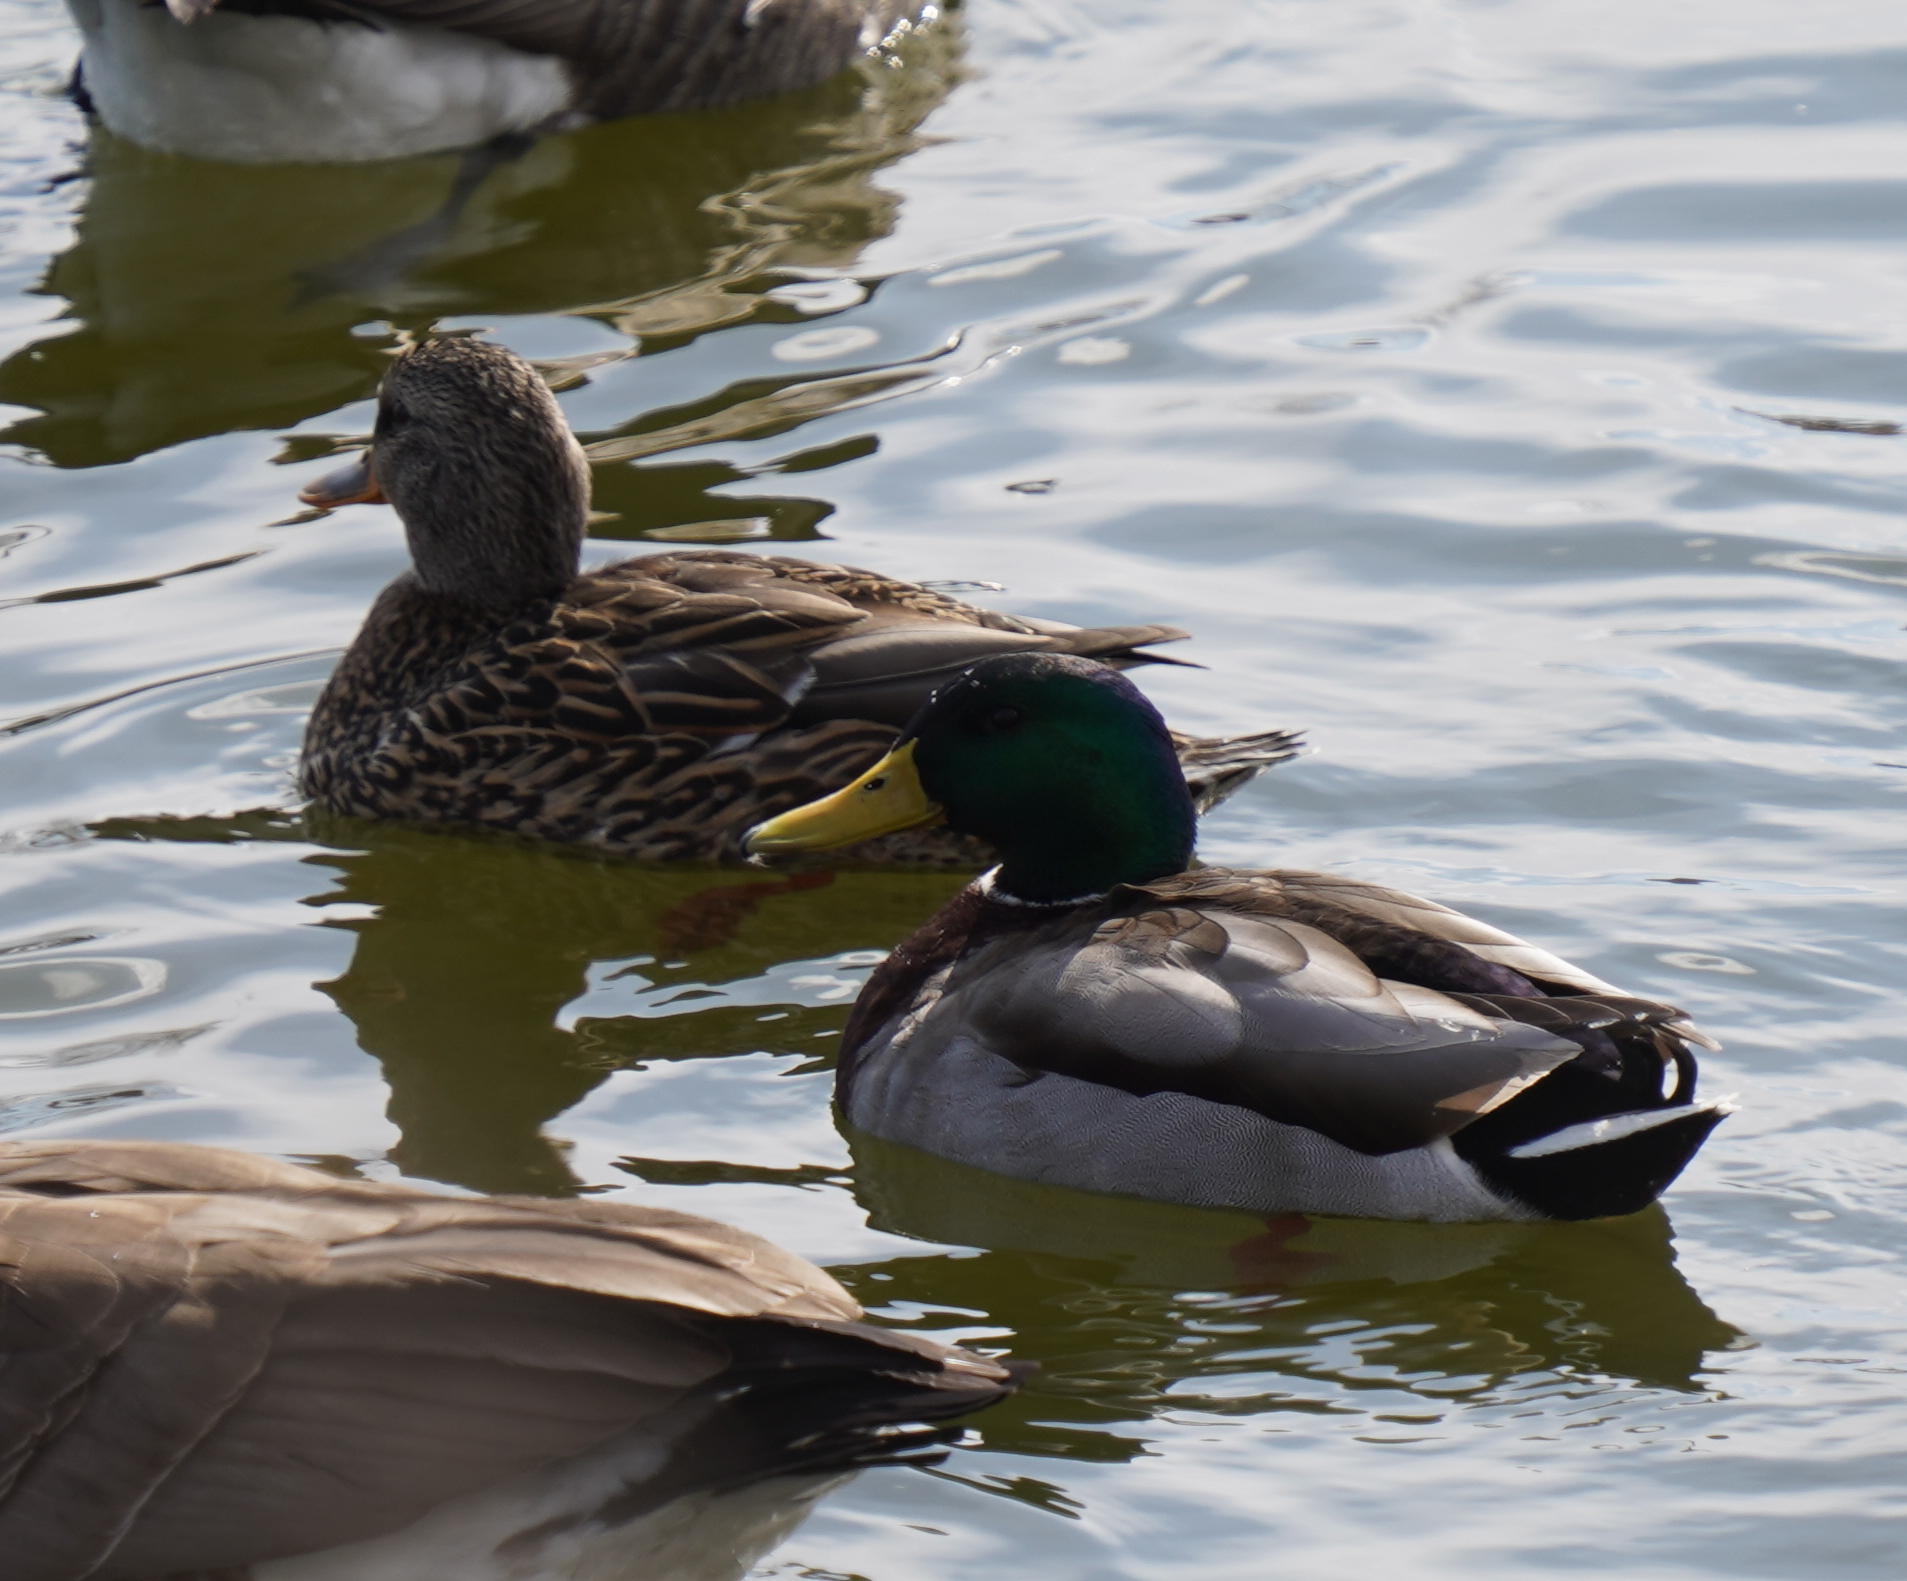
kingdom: Animalia
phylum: Chordata
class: Aves
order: Anseriformes
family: Anatidae
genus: Anas
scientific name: Anas platyrhynchos
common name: Mallard
